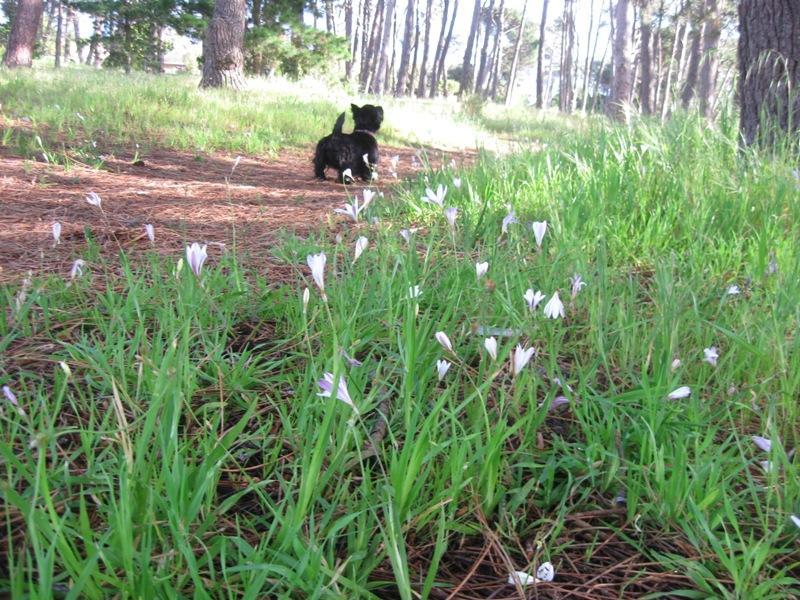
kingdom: Plantae
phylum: Tracheophyta
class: Liliopsida
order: Asparagales
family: Iridaceae
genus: Sparaxis
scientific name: Sparaxis bulbifera
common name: Harlequin-flower
